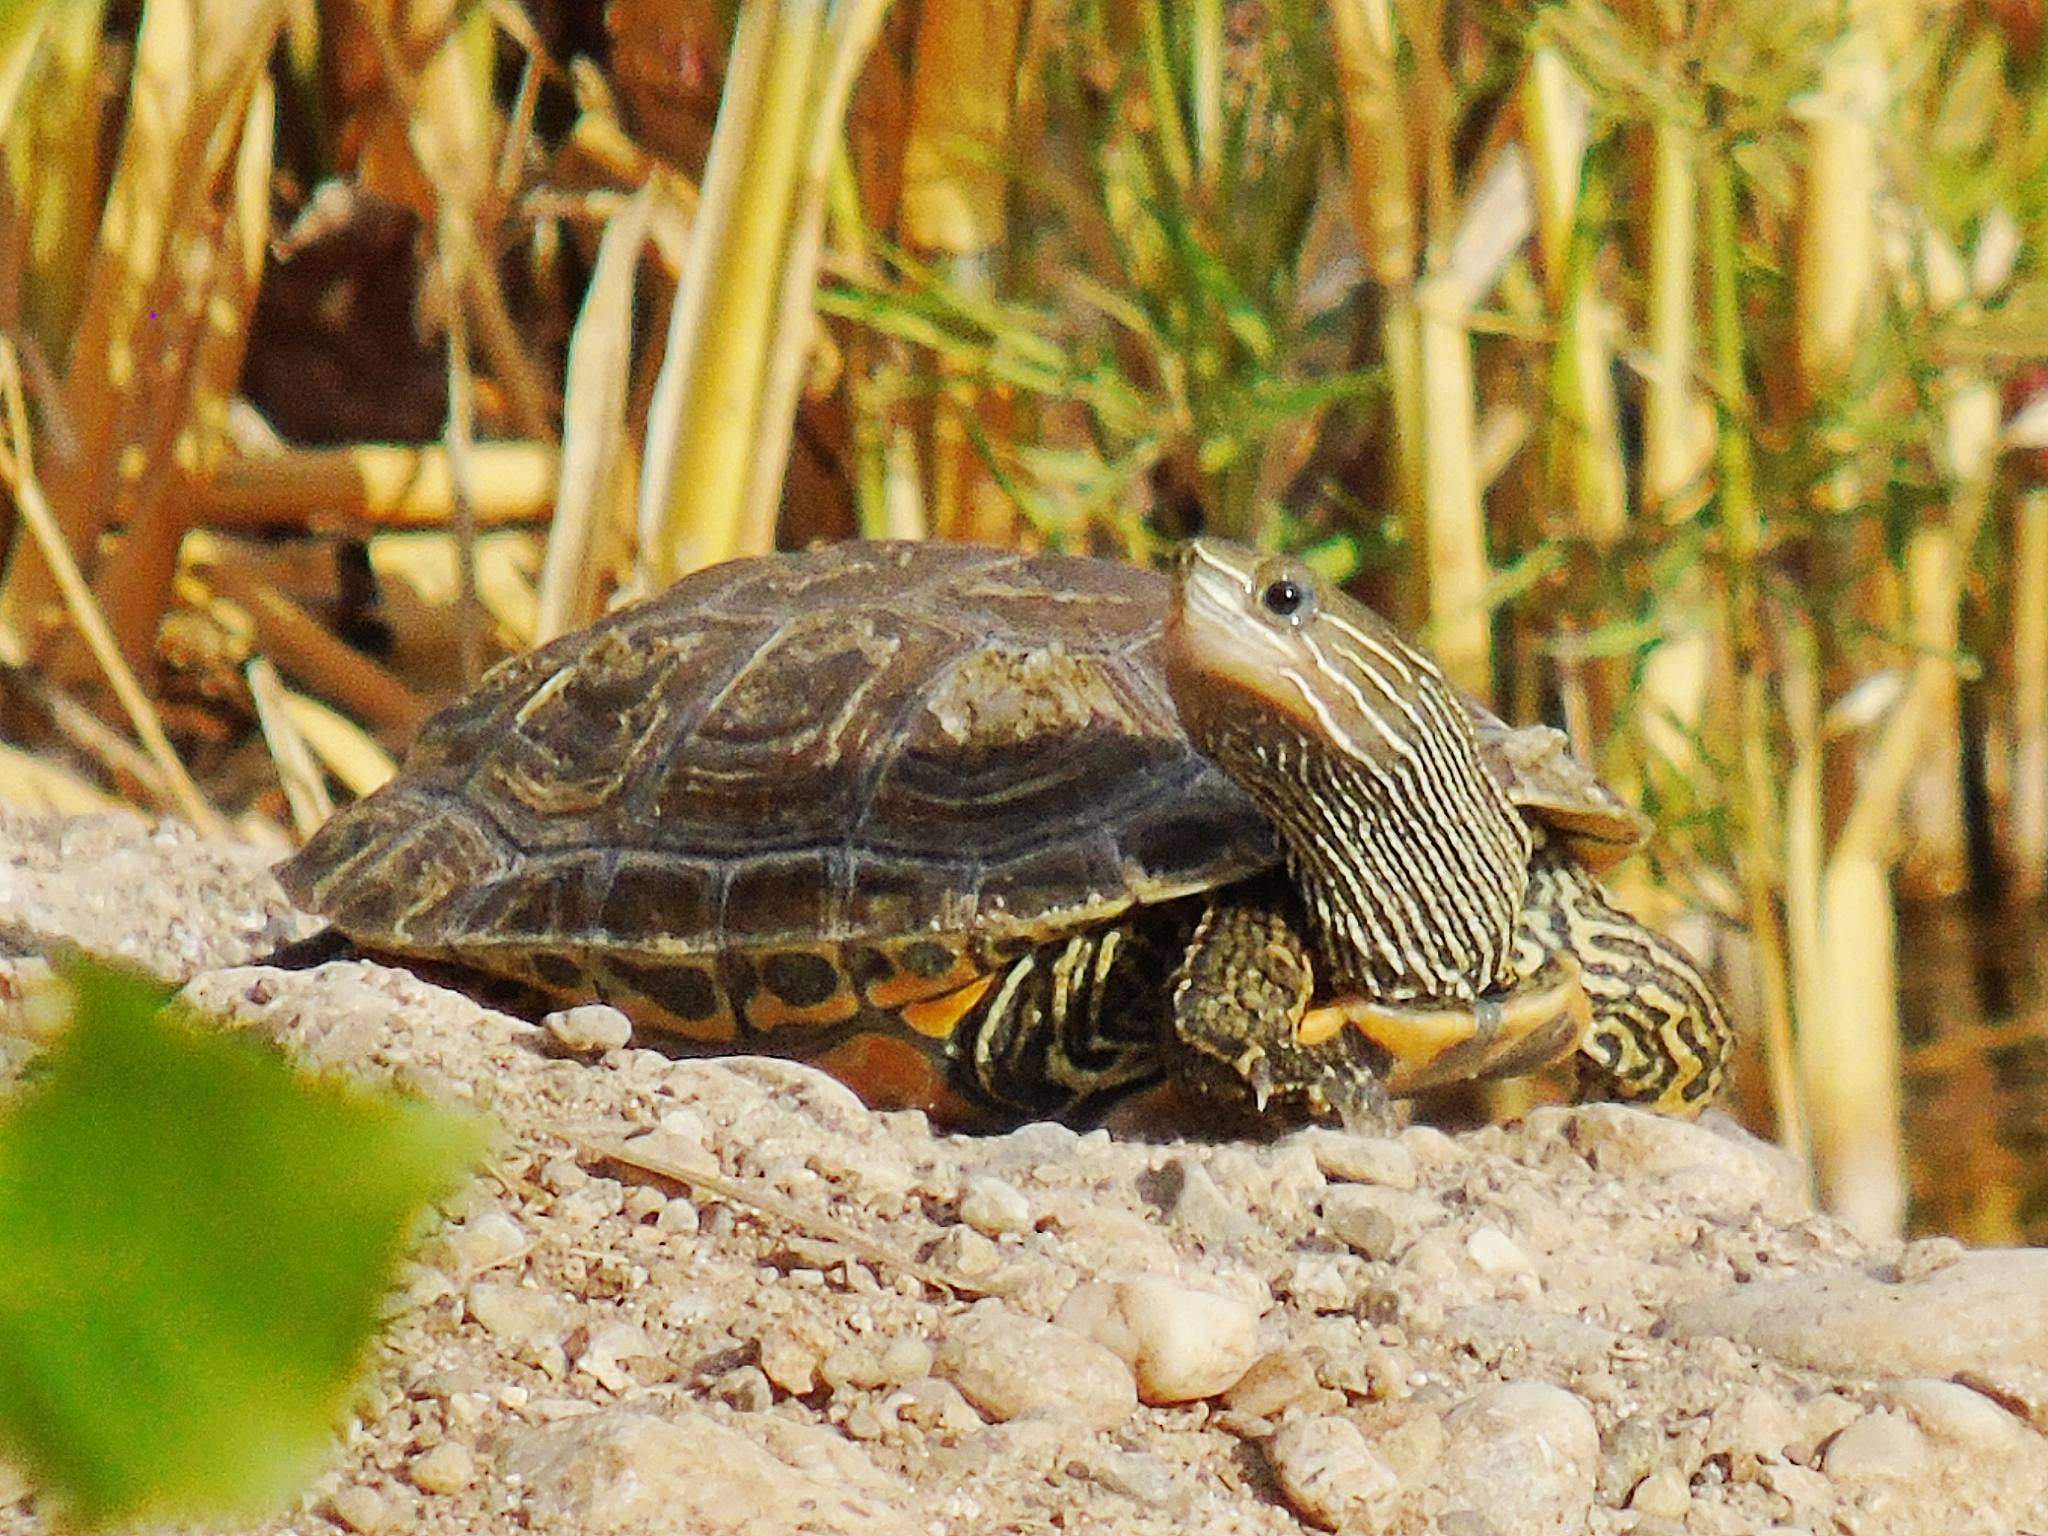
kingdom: Animalia
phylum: Chordata
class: Testudines
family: Geoemydidae
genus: Mauremys
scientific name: Mauremys caspica
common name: Caspian turtle
